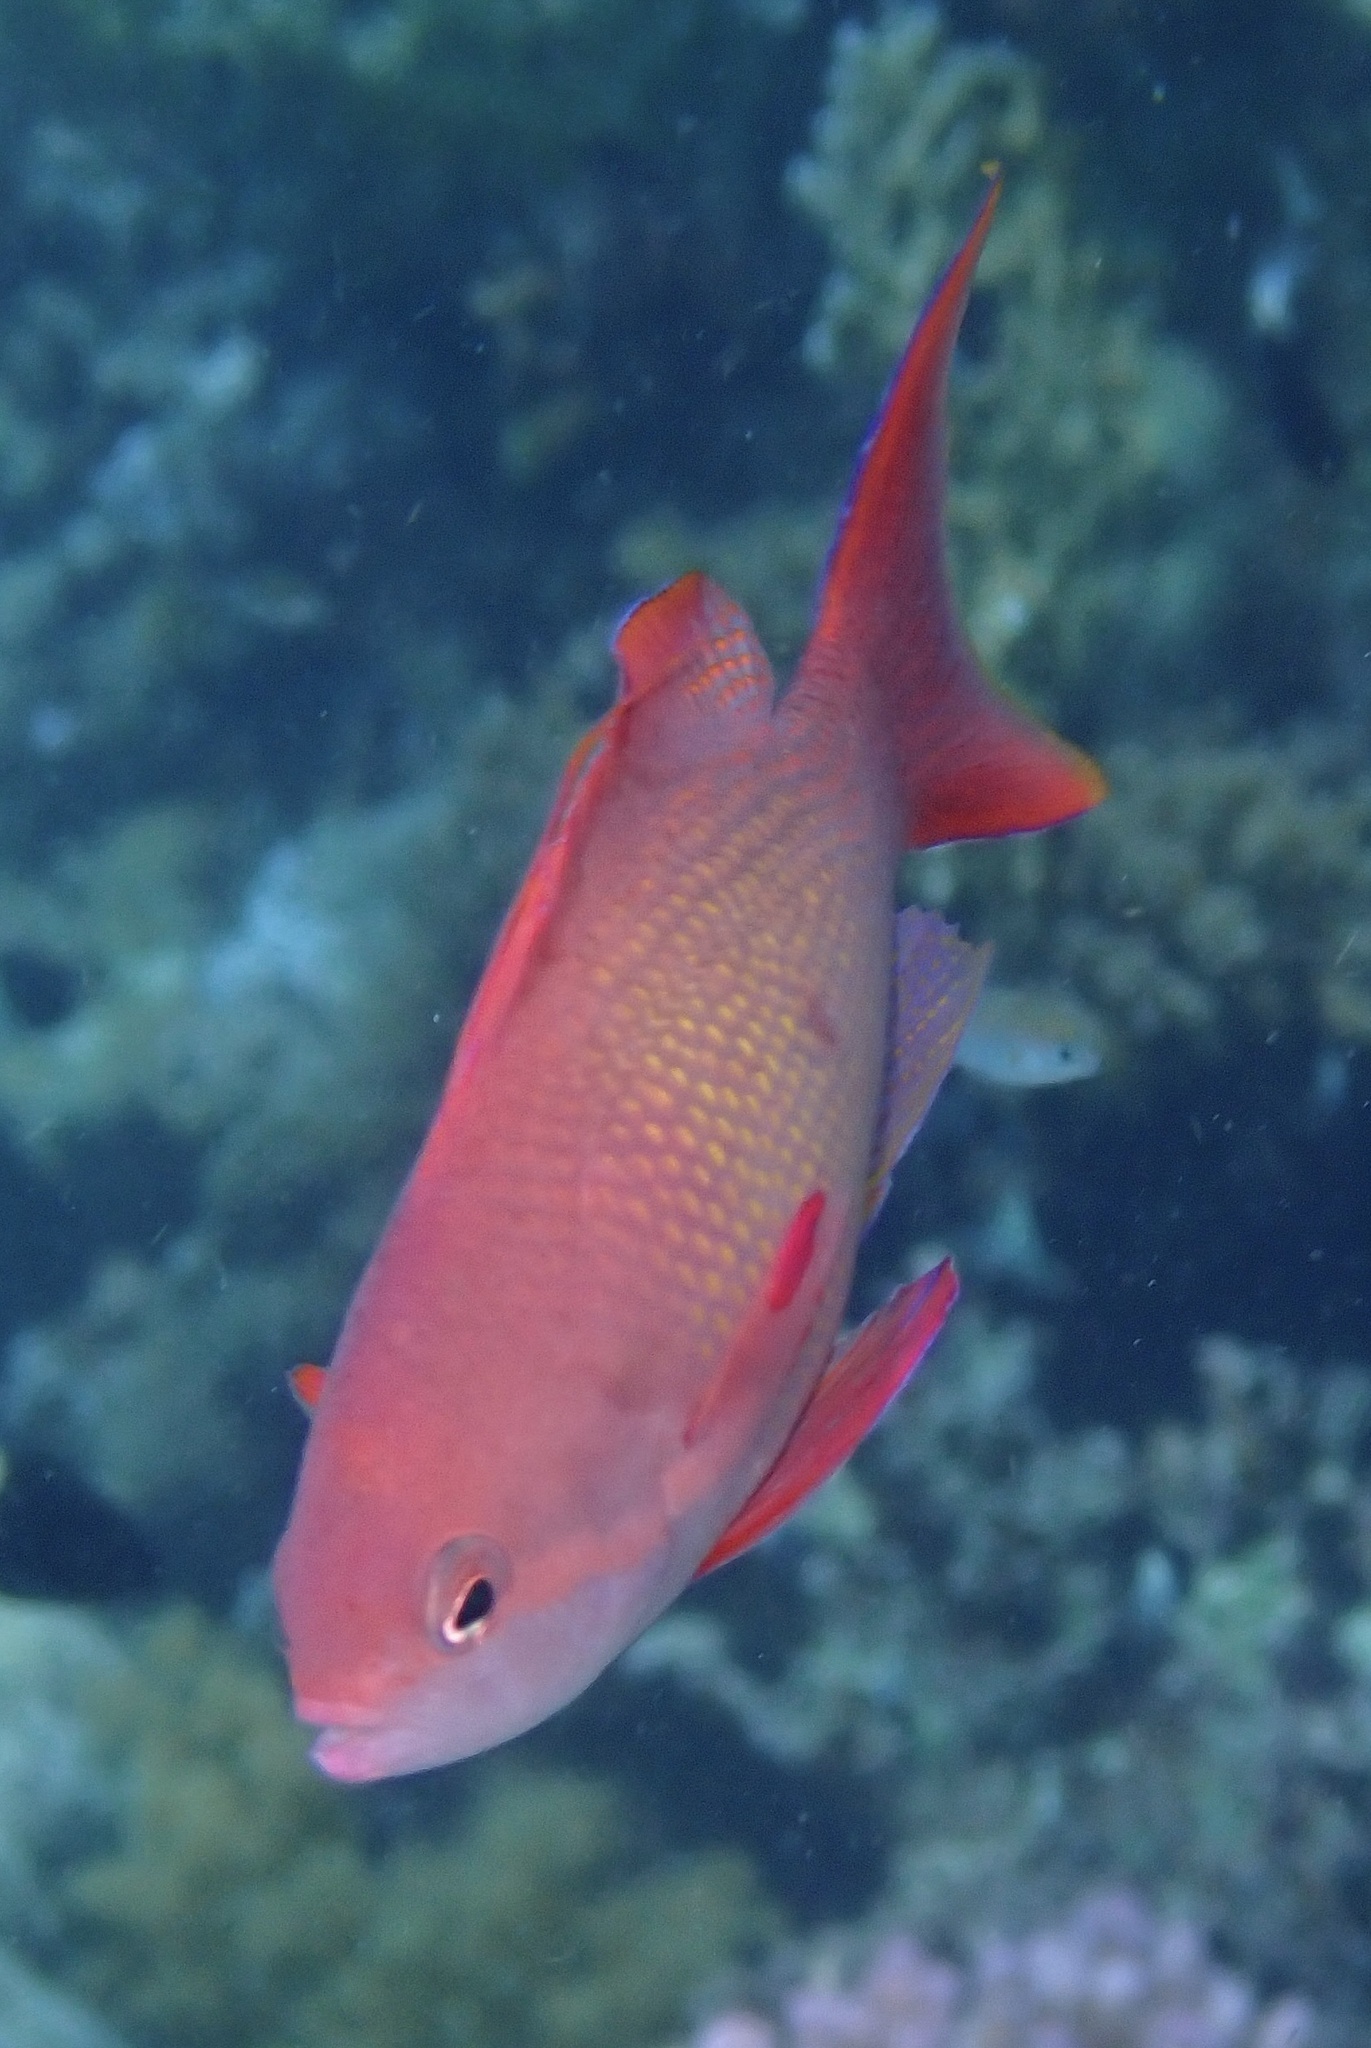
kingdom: Animalia
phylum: Chordata
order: Perciformes
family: Serranidae
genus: Pseudanthias
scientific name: Pseudanthias squamipinnis
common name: Scalefin anthias
